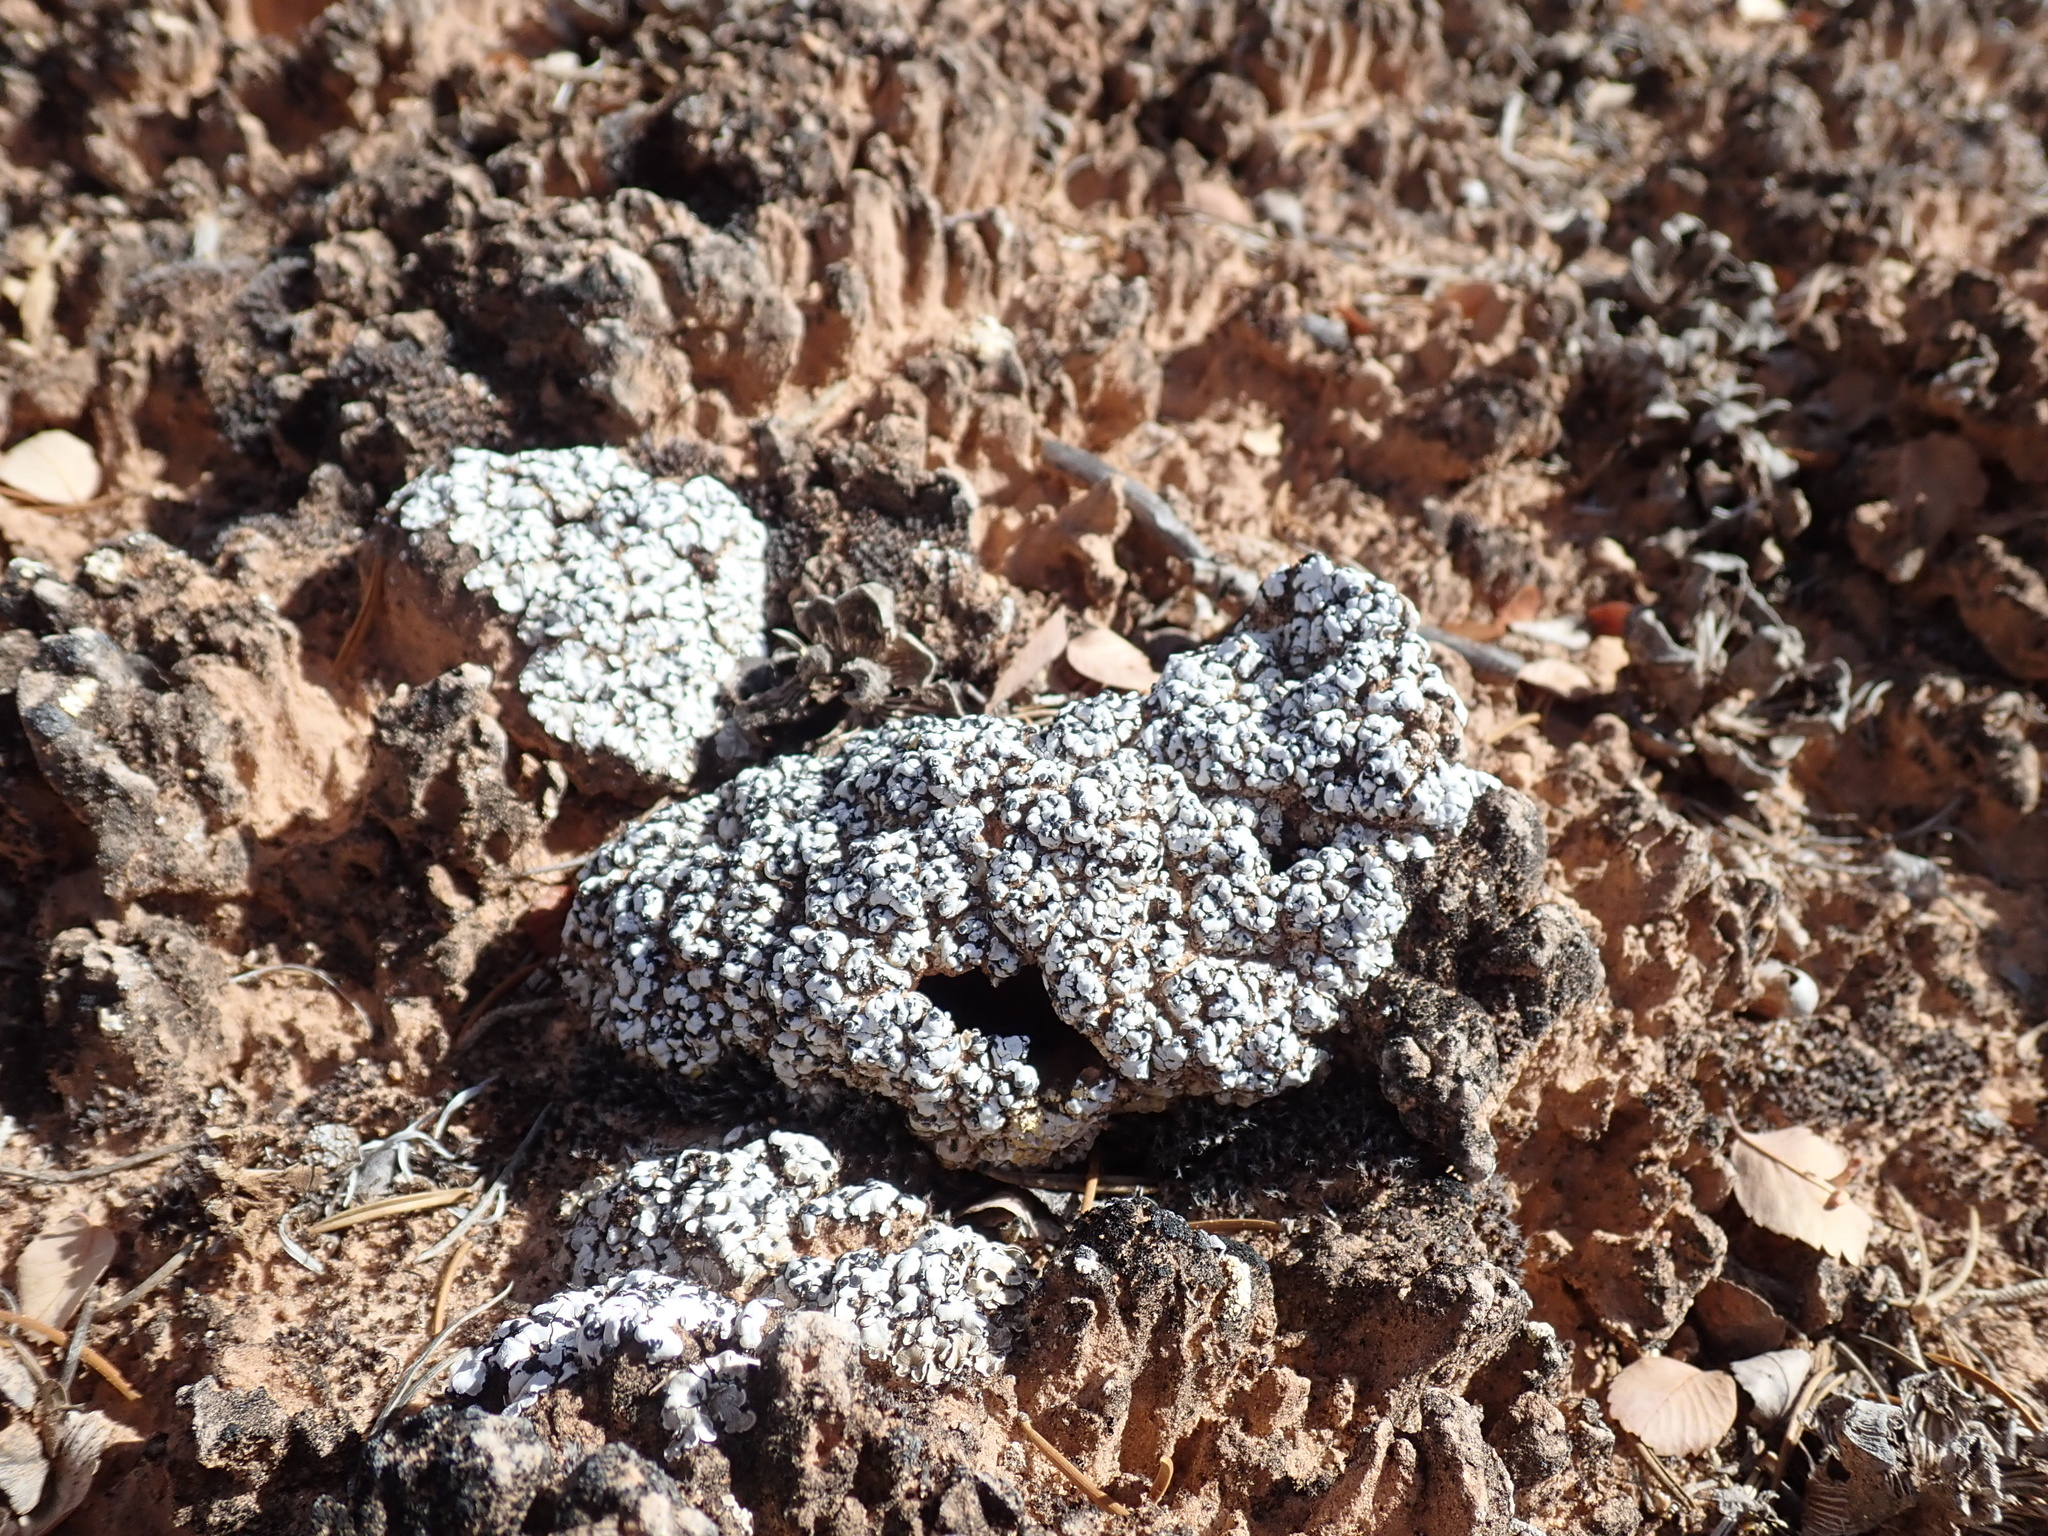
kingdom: Fungi
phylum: Ascomycota
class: Lecanoromycetes
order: Lecanorales
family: Psoraceae
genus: Psora
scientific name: Psora cerebriformis
